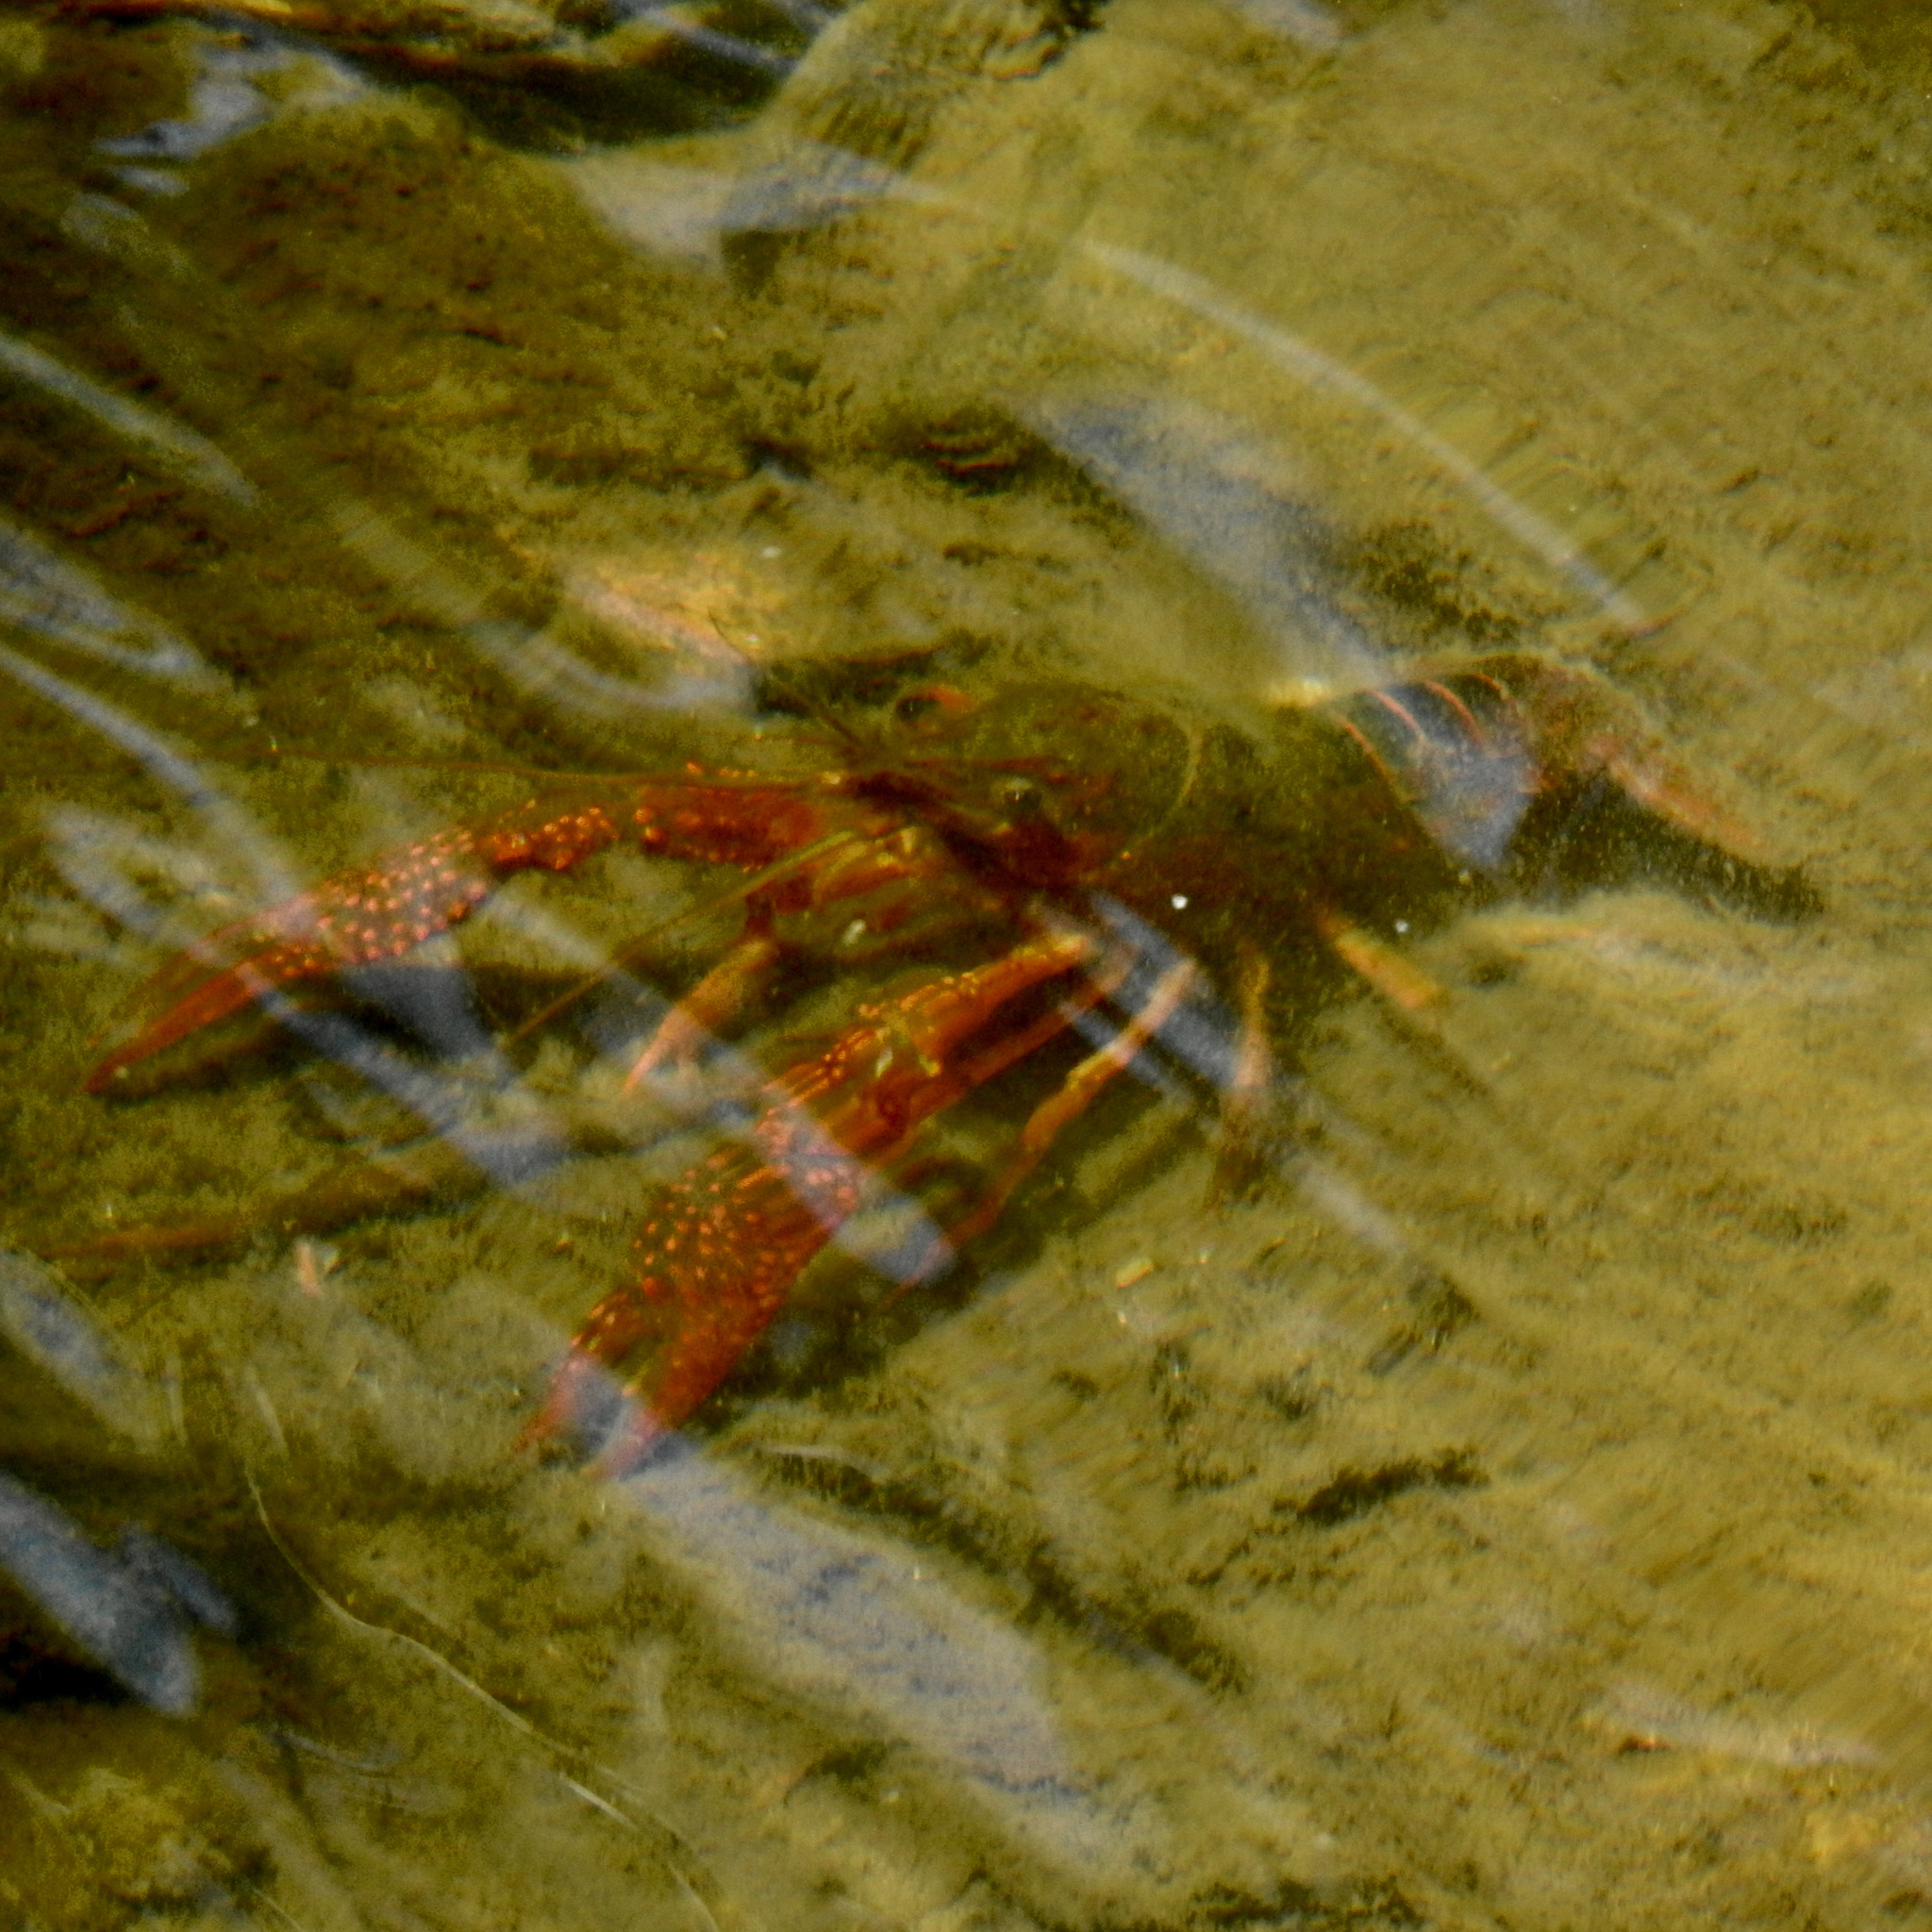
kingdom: Animalia
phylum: Arthropoda
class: Malacostraca
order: Decapoda
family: Cambaridae
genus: Procambarus
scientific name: Procambarus clarkii
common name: Red swamp crayfish
